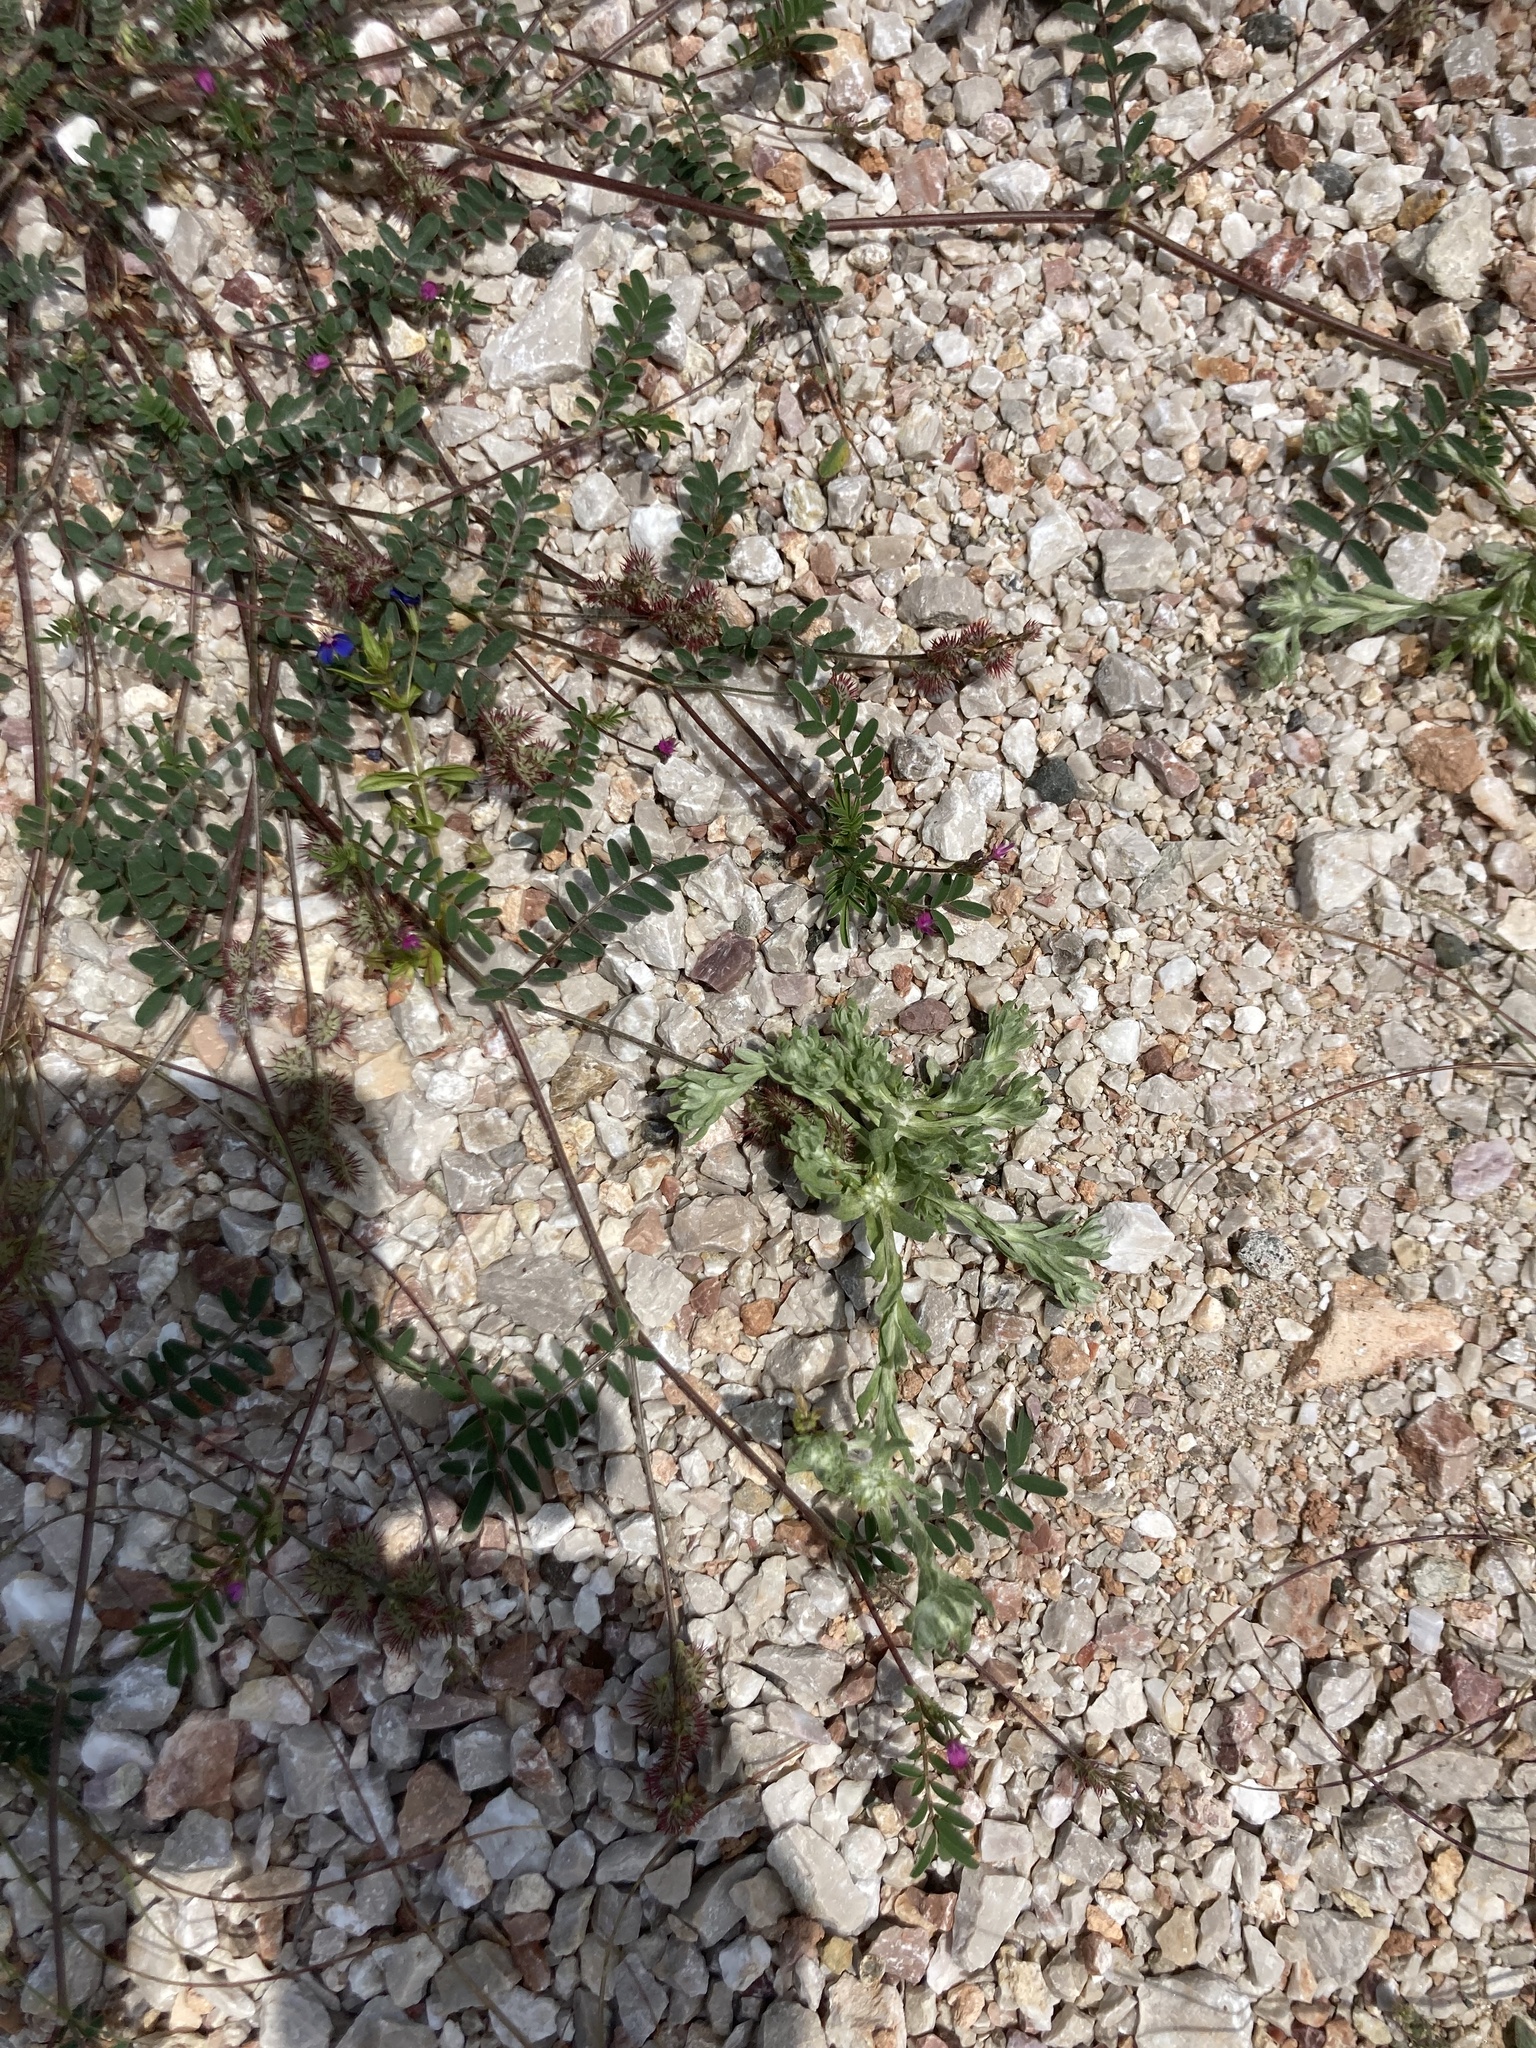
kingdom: Plantae
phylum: Tracheophyta
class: Magnoliopsida
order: Fabales
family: Fabaceae
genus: Onobrychis
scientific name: Onobrychis caput-galli
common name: Cockscomb sainfoin
